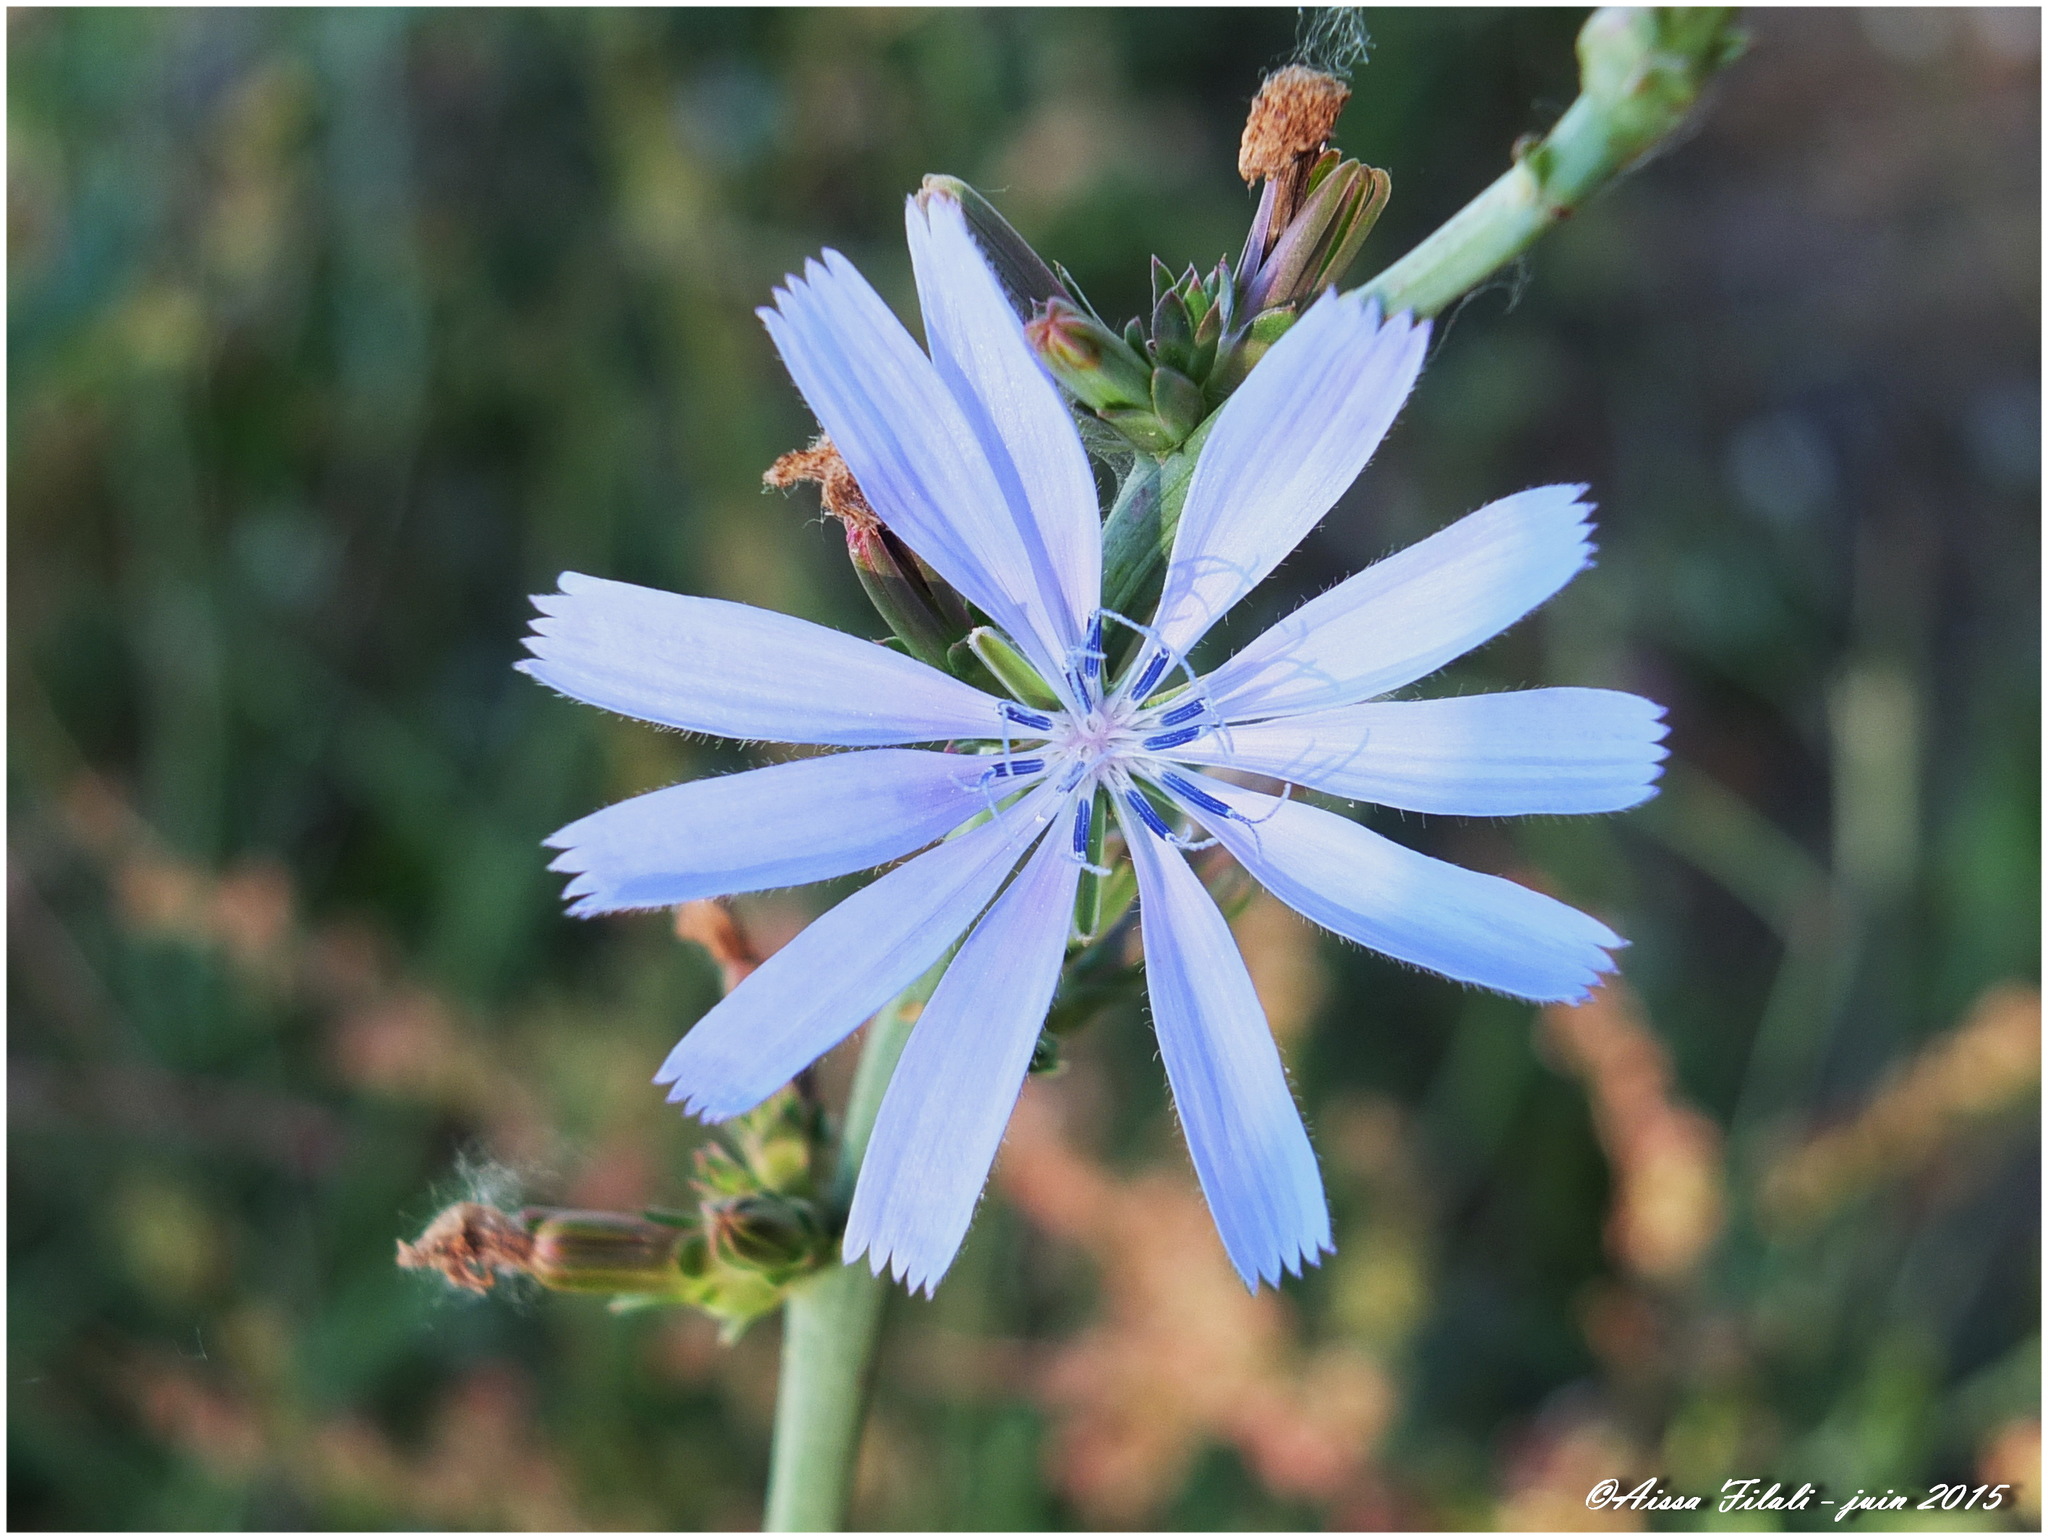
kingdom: Plantae
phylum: Tracheophyta
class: Magnoliopsida
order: Asterales
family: Asteraceae
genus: Cichorium
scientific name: Cichorium intybus
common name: Chicory
